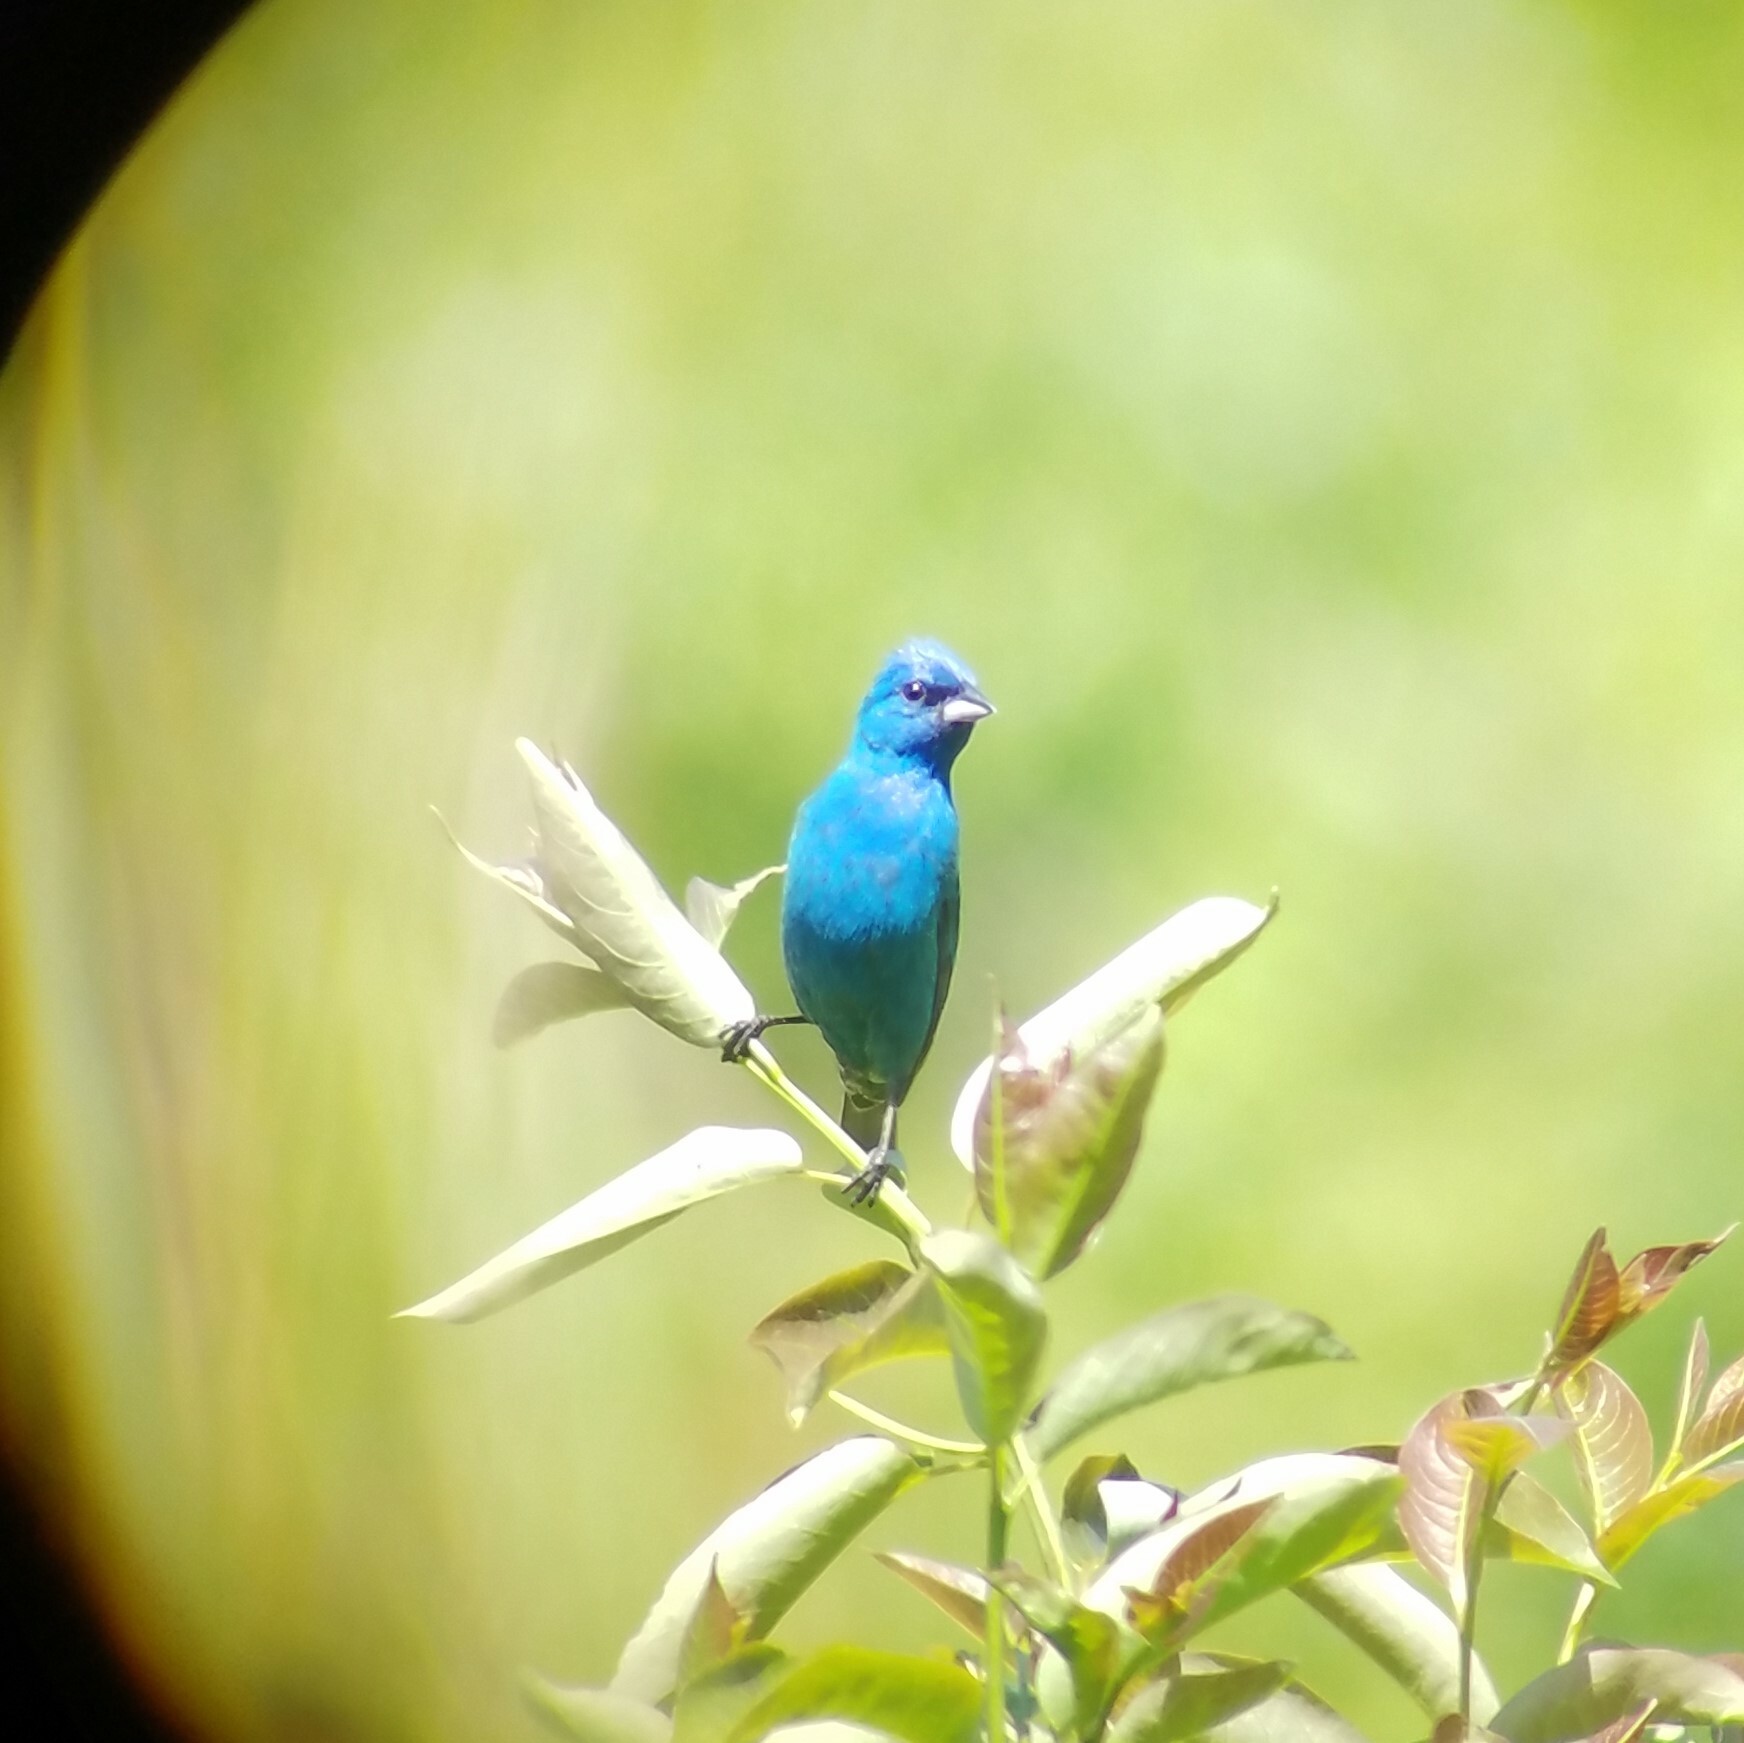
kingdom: Animalia
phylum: Chordata
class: Aves
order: Passeriformes
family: Cardinalidae
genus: Passerina
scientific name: Passerina cyanea
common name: Indigo bunting
